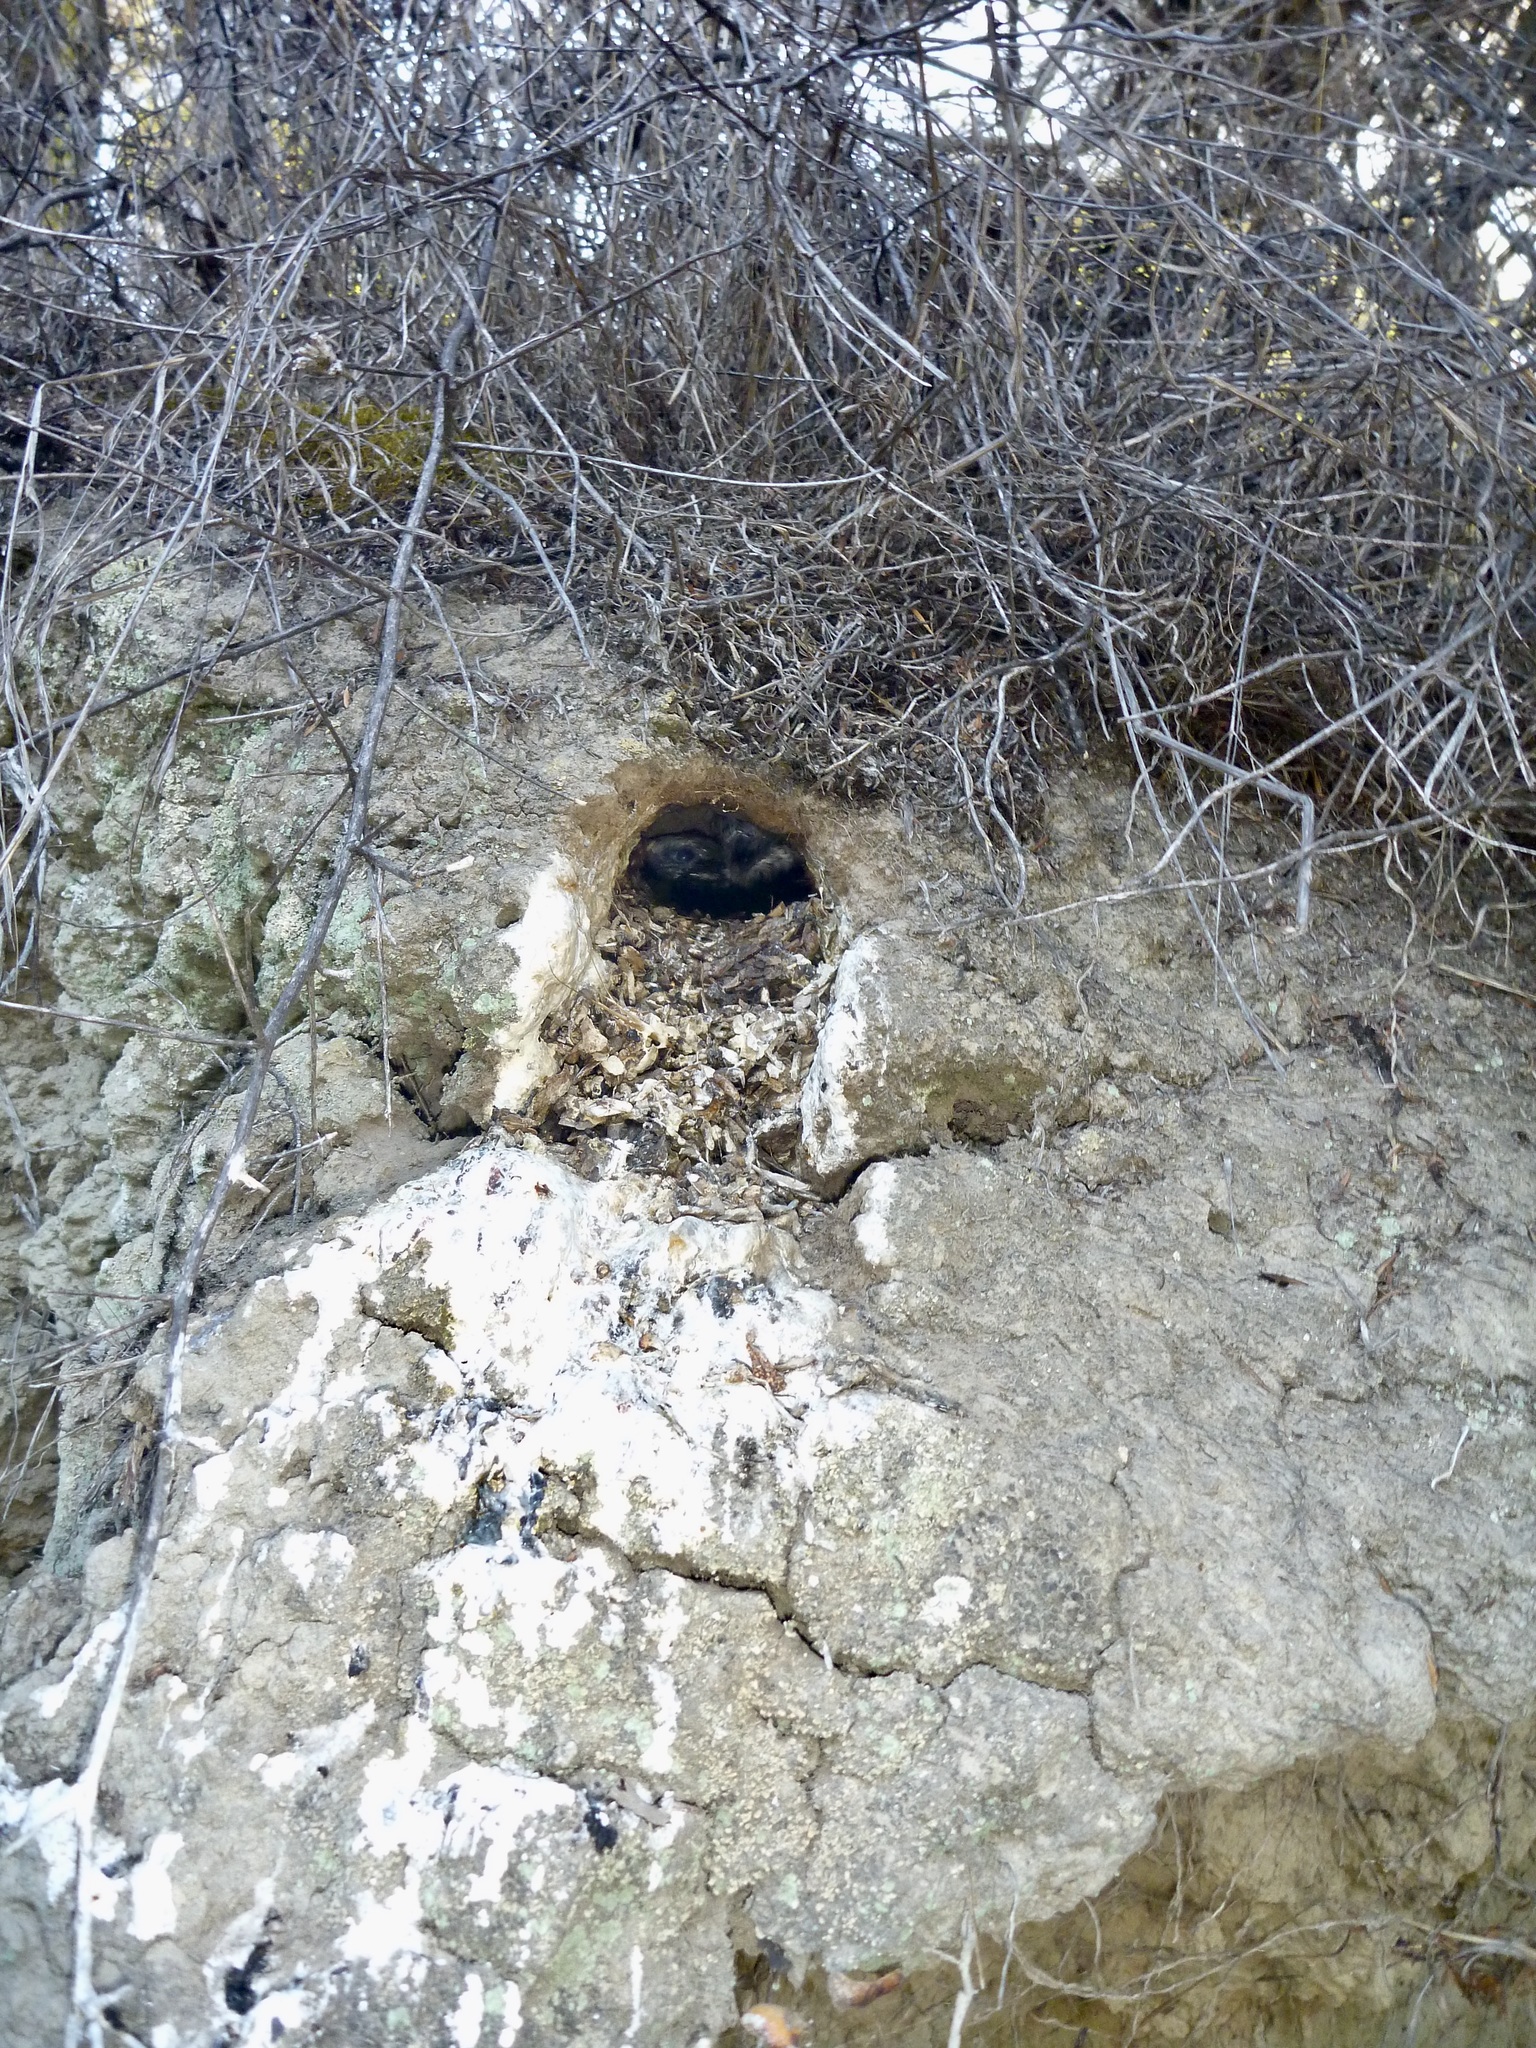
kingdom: Animalia
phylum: Chordata
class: Aves
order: Coraciiformes
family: Alcedinidae
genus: Todiramphus
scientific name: Todiramphus sanctus
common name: Sacred kingfisher
